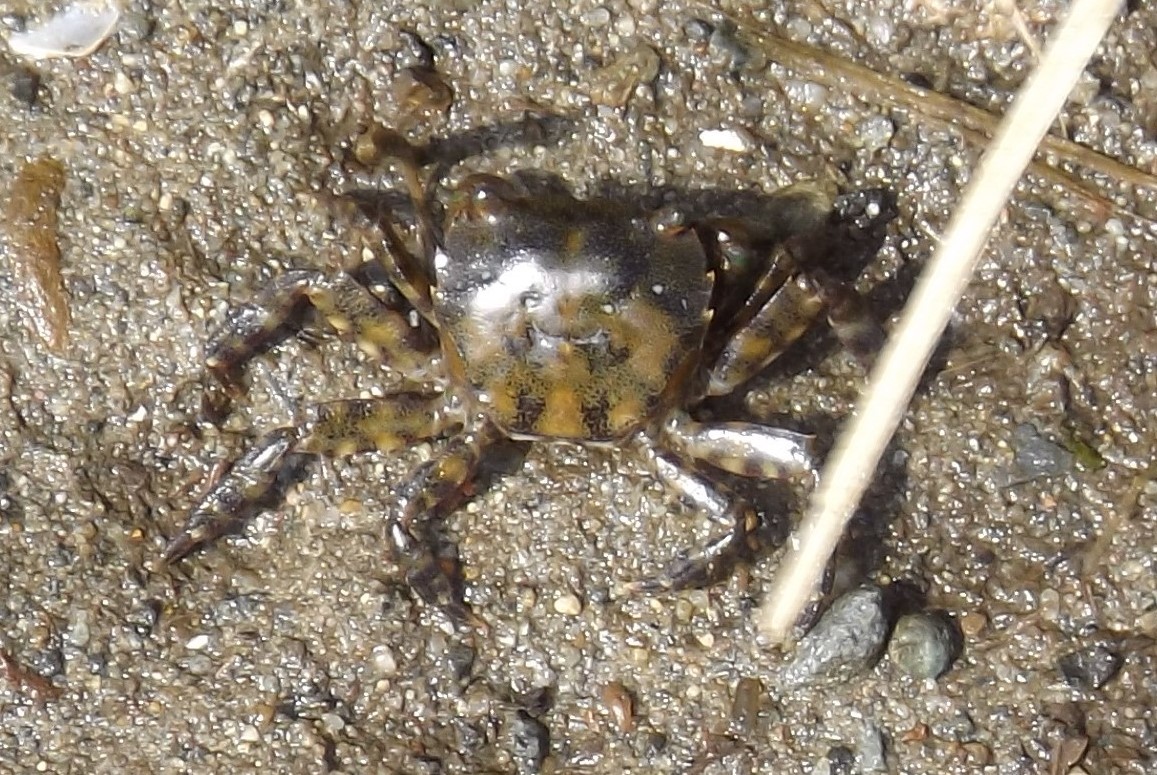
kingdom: Animalia
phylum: Arthropoda
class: Malacostraca
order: Decapoda
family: Varunidae
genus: Hemigrapsus
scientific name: Hemigrapsus sanguineus
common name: Asian shore crab
